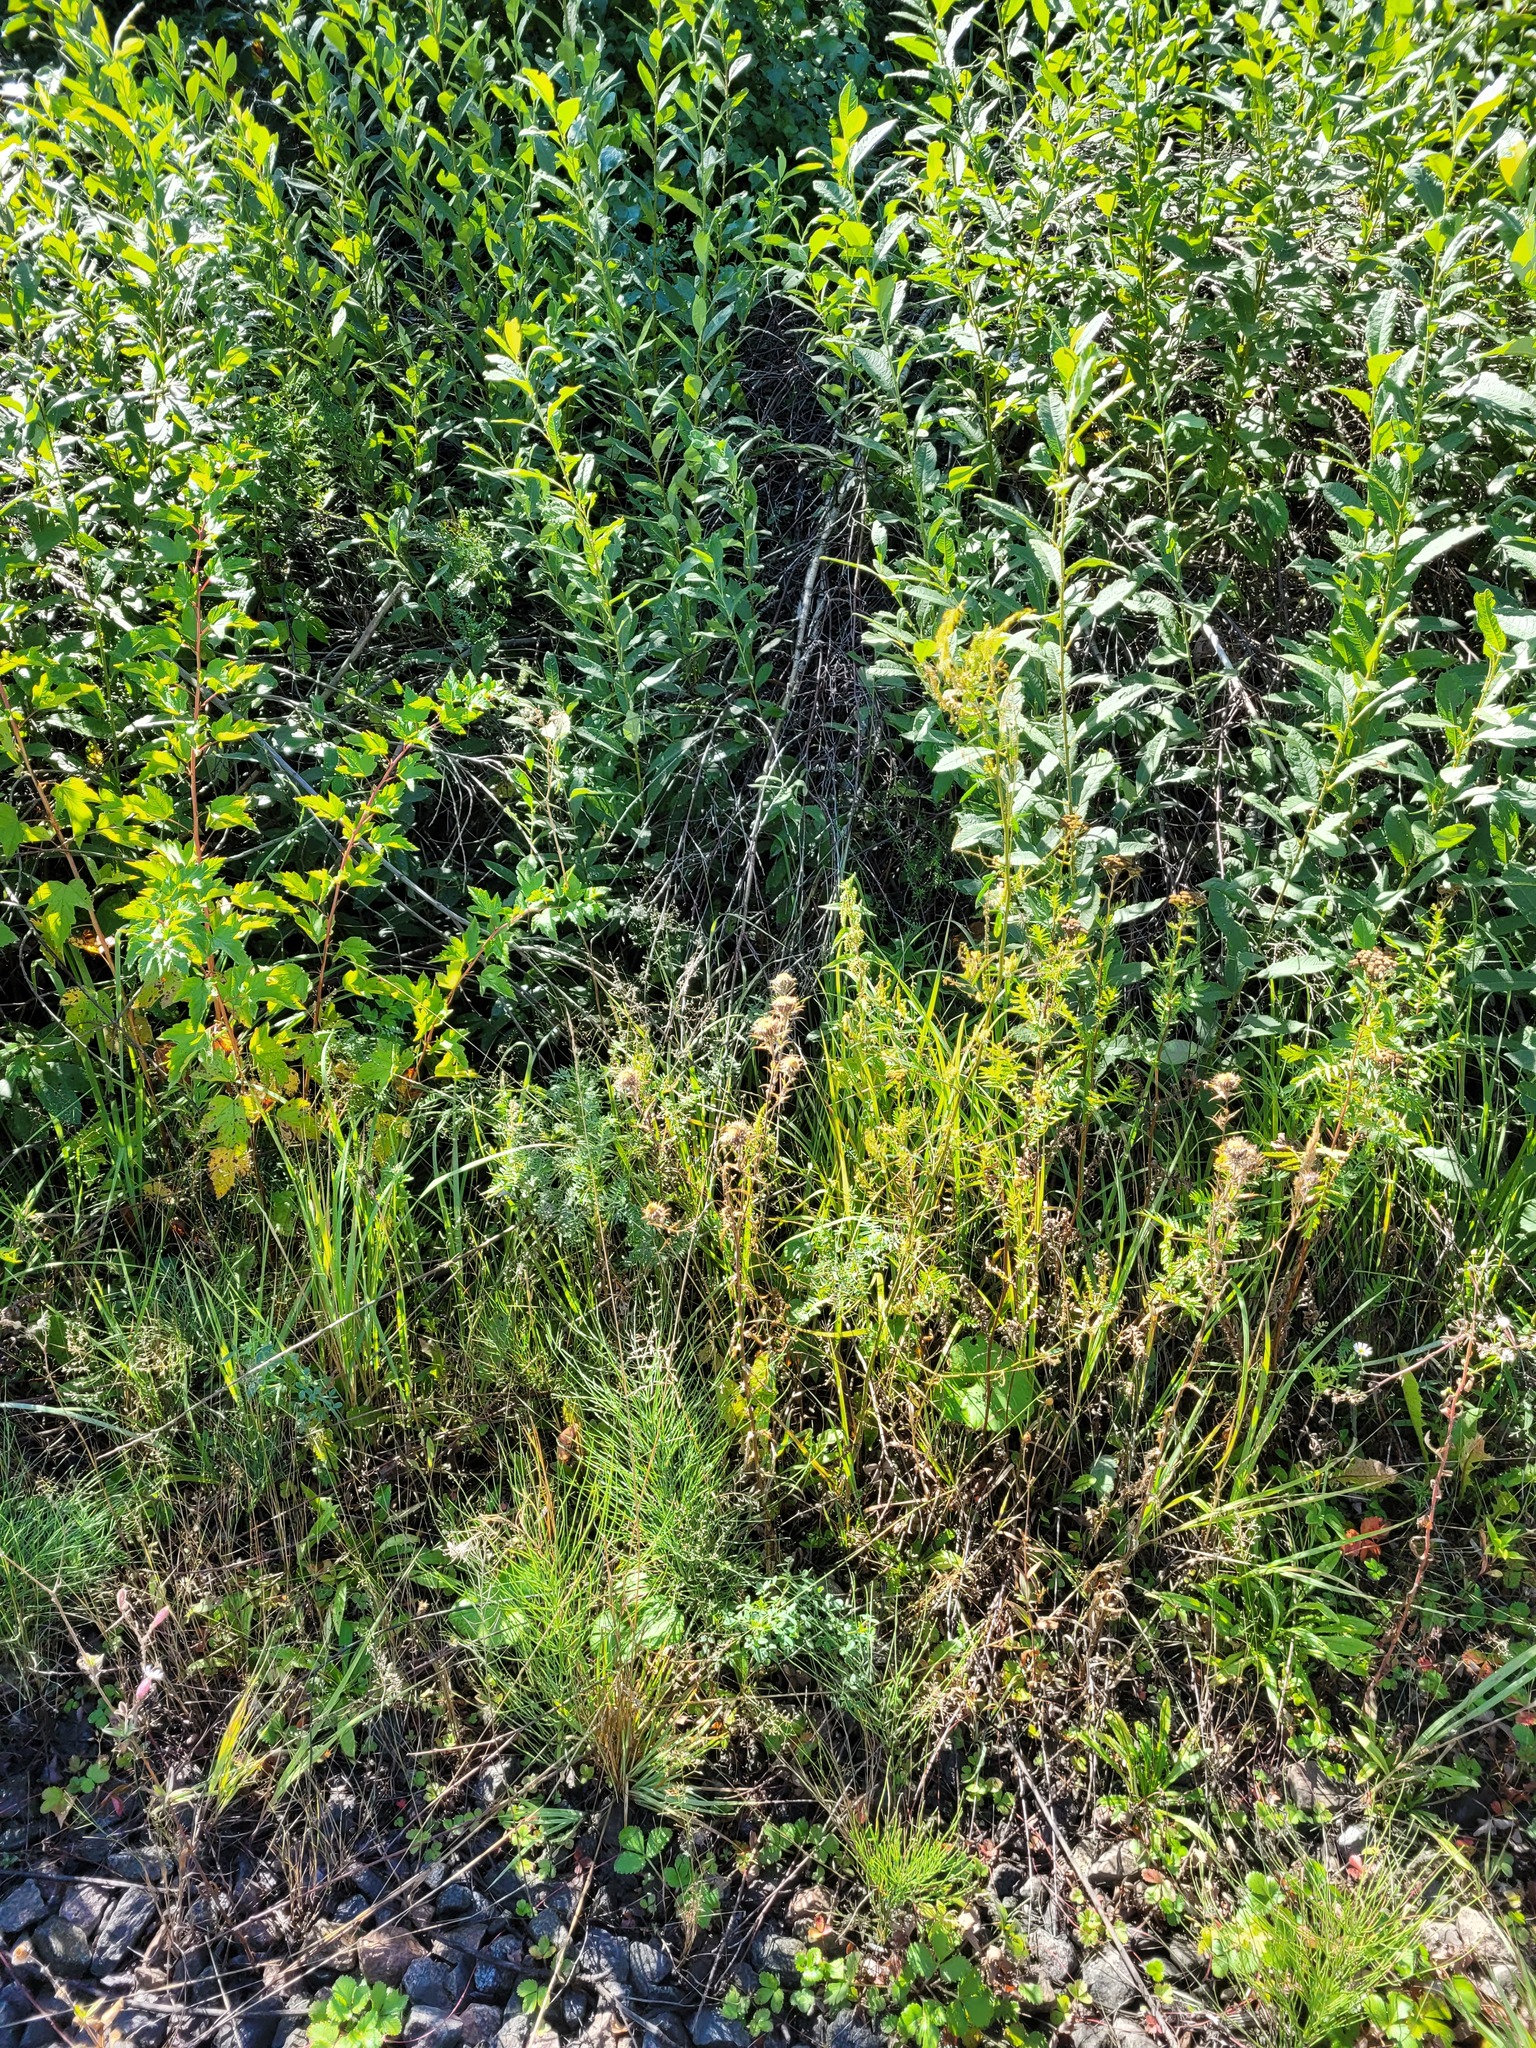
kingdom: Plantae
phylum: Tracheophyta
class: Magnoliopsida
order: Asterales
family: Asteraceae
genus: Carlina
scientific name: Carlina biebersteinii
